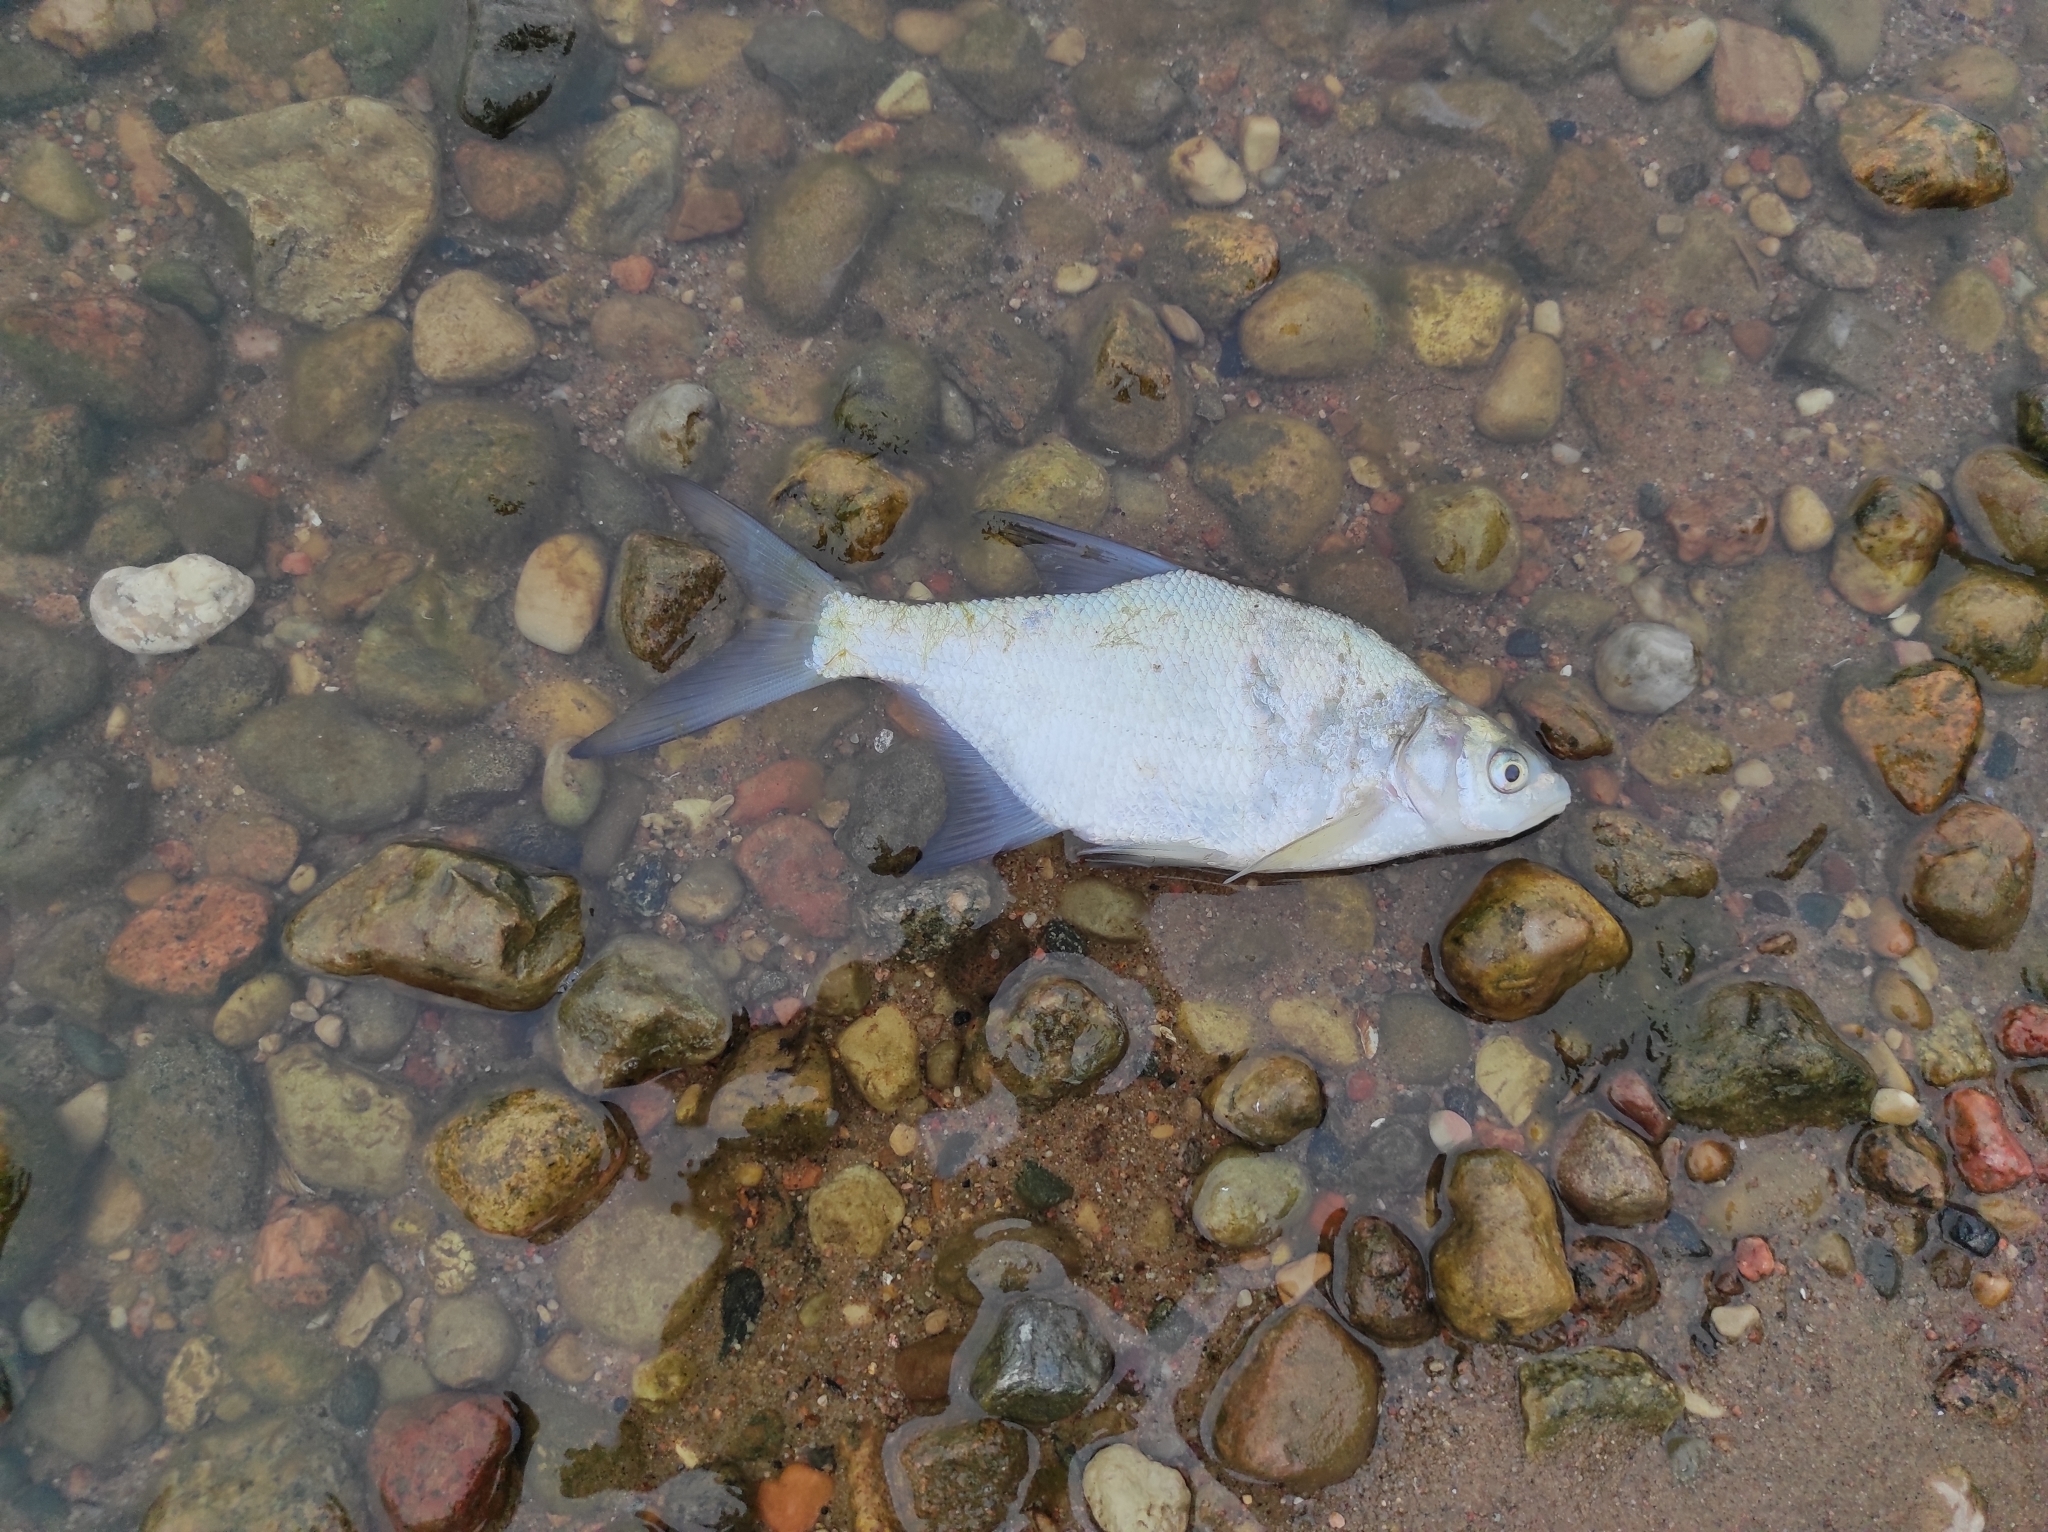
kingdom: Animalia
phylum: Chordata
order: Cypriniformes
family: Cyprinidae
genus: Abramis
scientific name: Abramis brama
